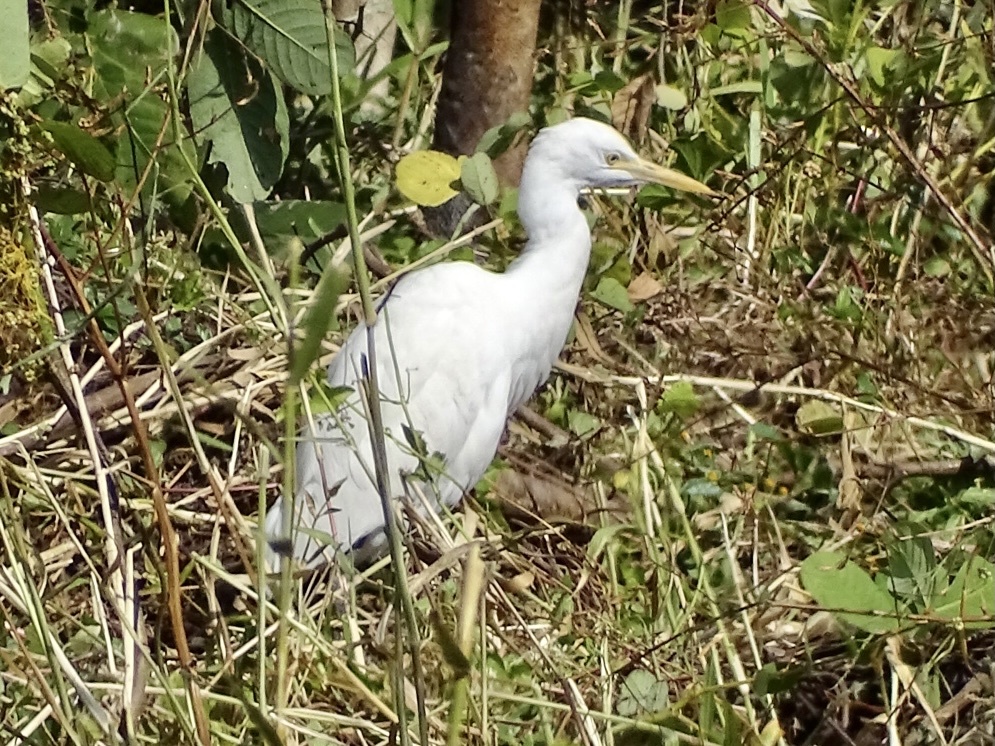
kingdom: Animalia
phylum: Chordata
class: Aves
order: Pelecaniformes
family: Ardeidae
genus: Bubulcus
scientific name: Bubulcus coromandus
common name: Eastern cattle egret
